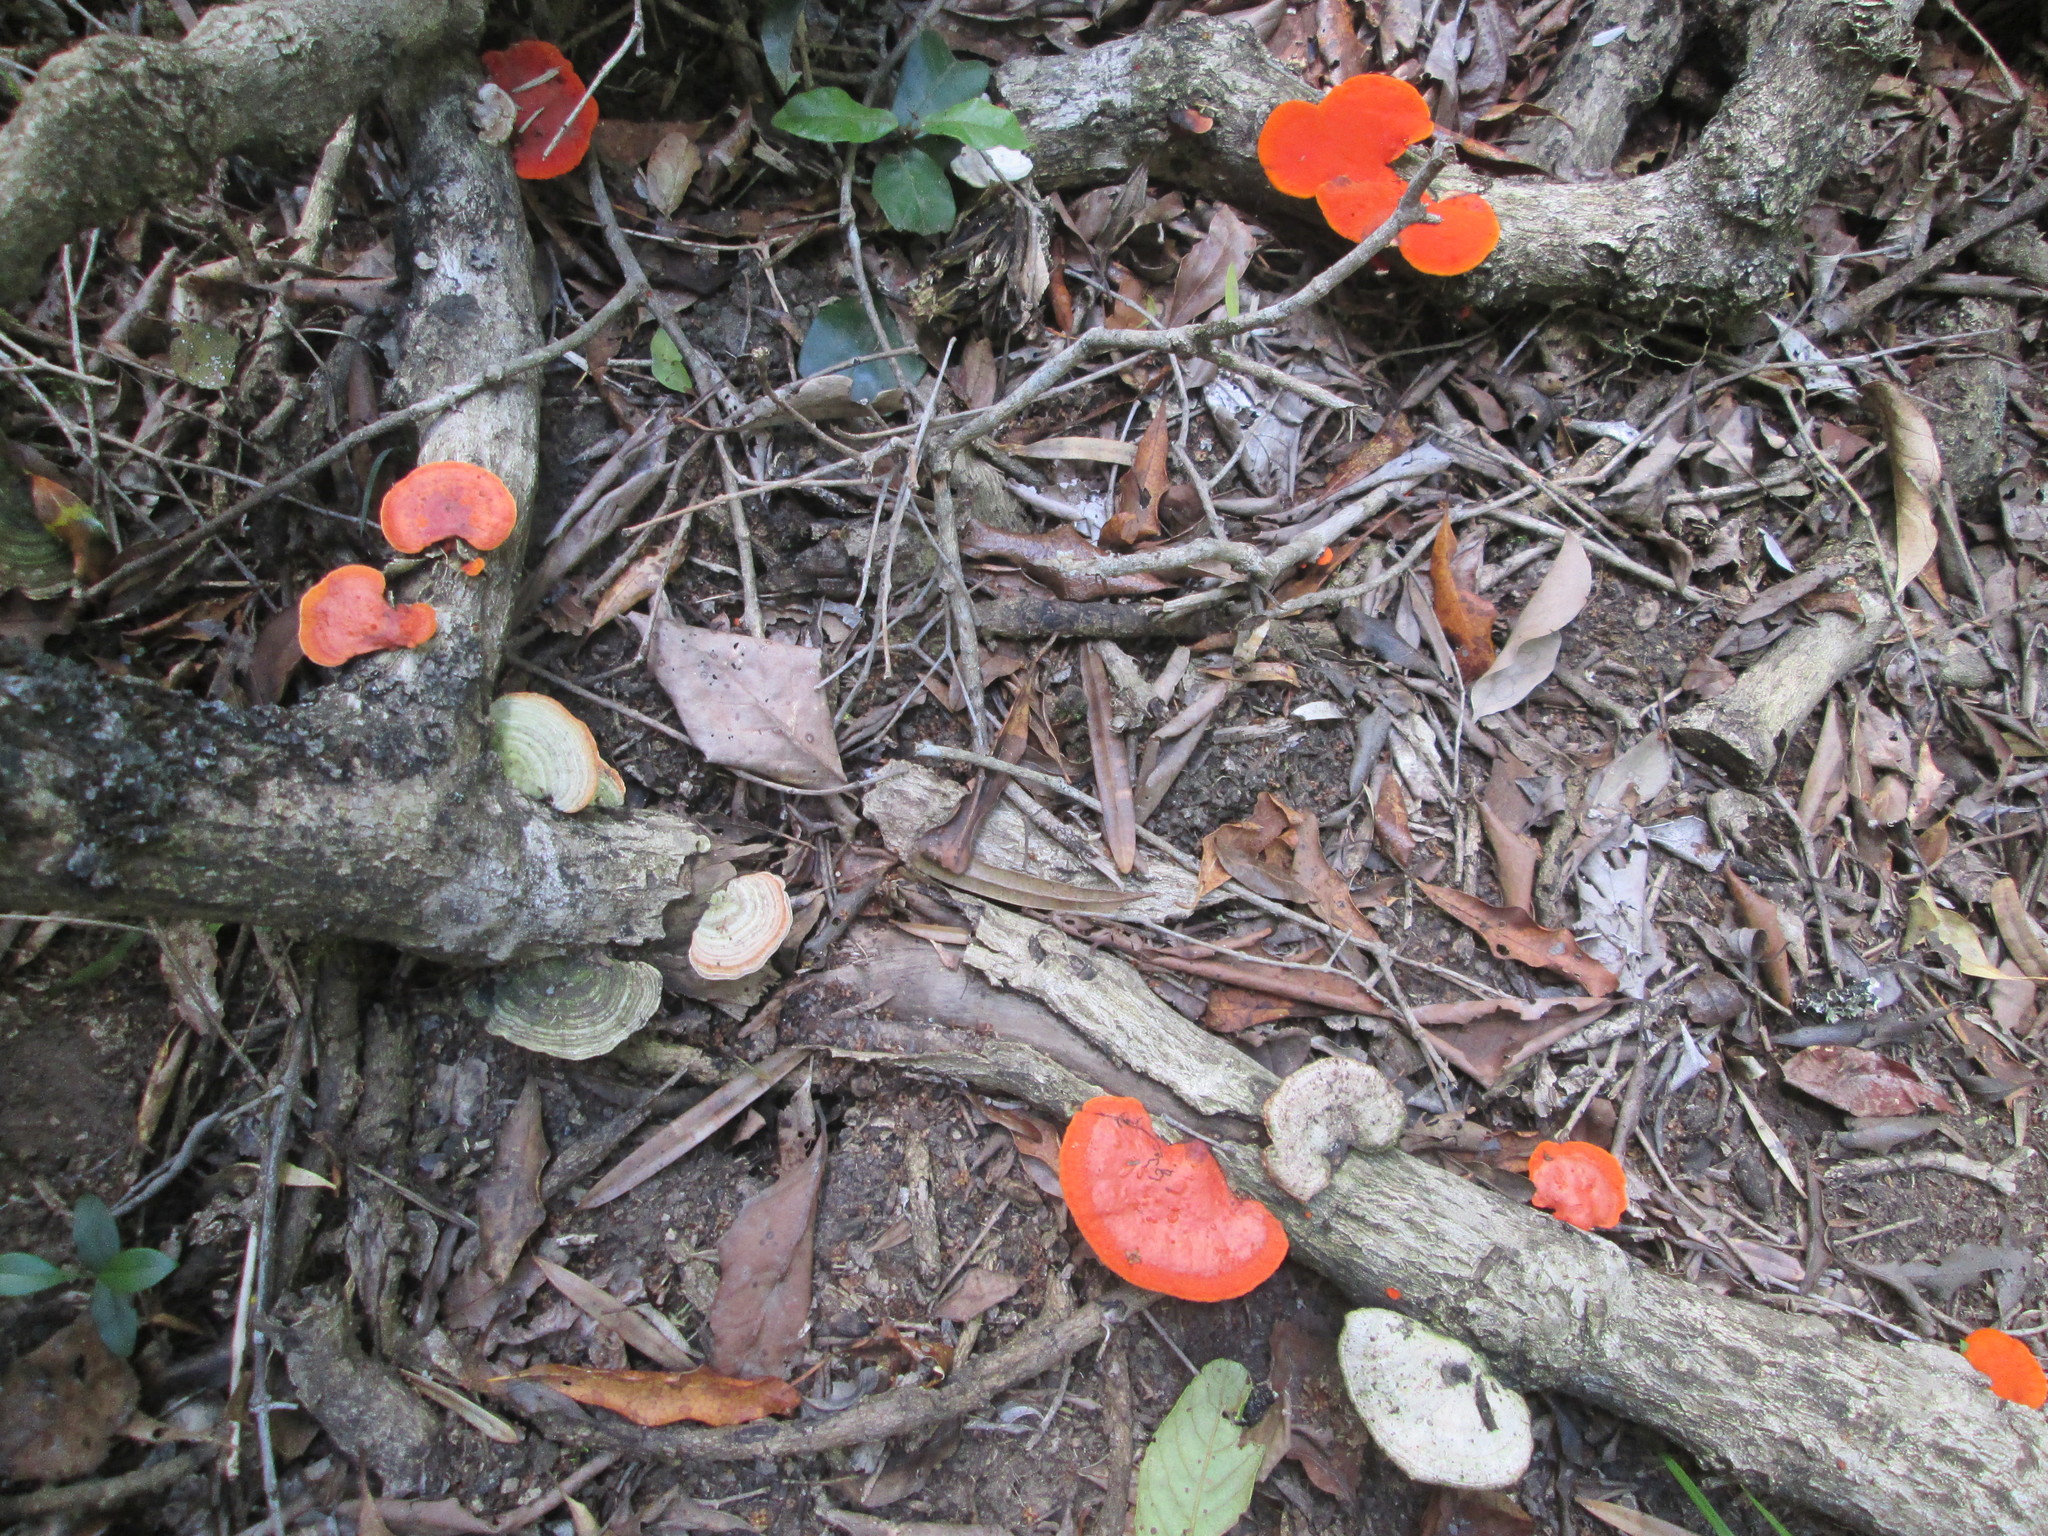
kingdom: Fungi
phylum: Basidiomycota
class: Agaricomycetes
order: Polyporales
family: Polyporaceae
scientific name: Polyporaceae
